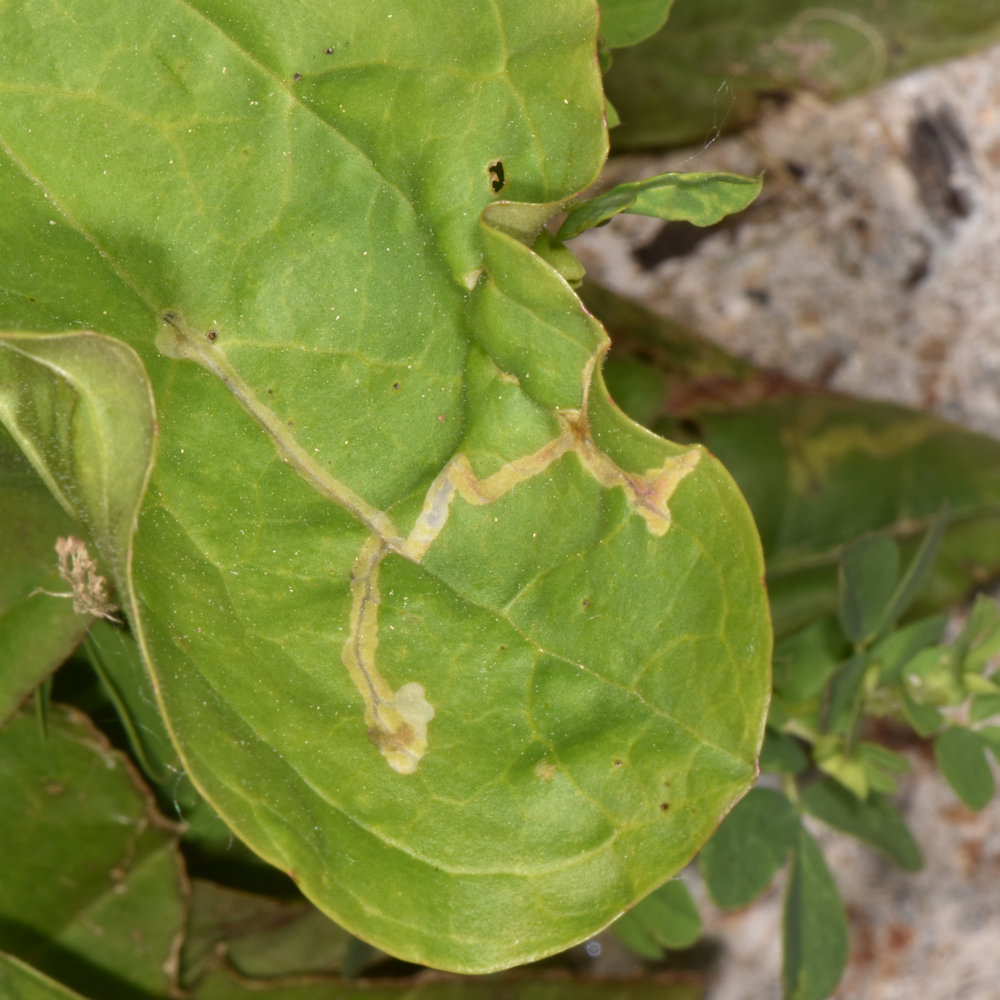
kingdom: Animalia
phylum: Arthropoda
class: Insecta
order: Coleoptera
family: Chrysomelidae
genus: Dibolia
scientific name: Dibolia borealis
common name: Northern plantain flea beetle
